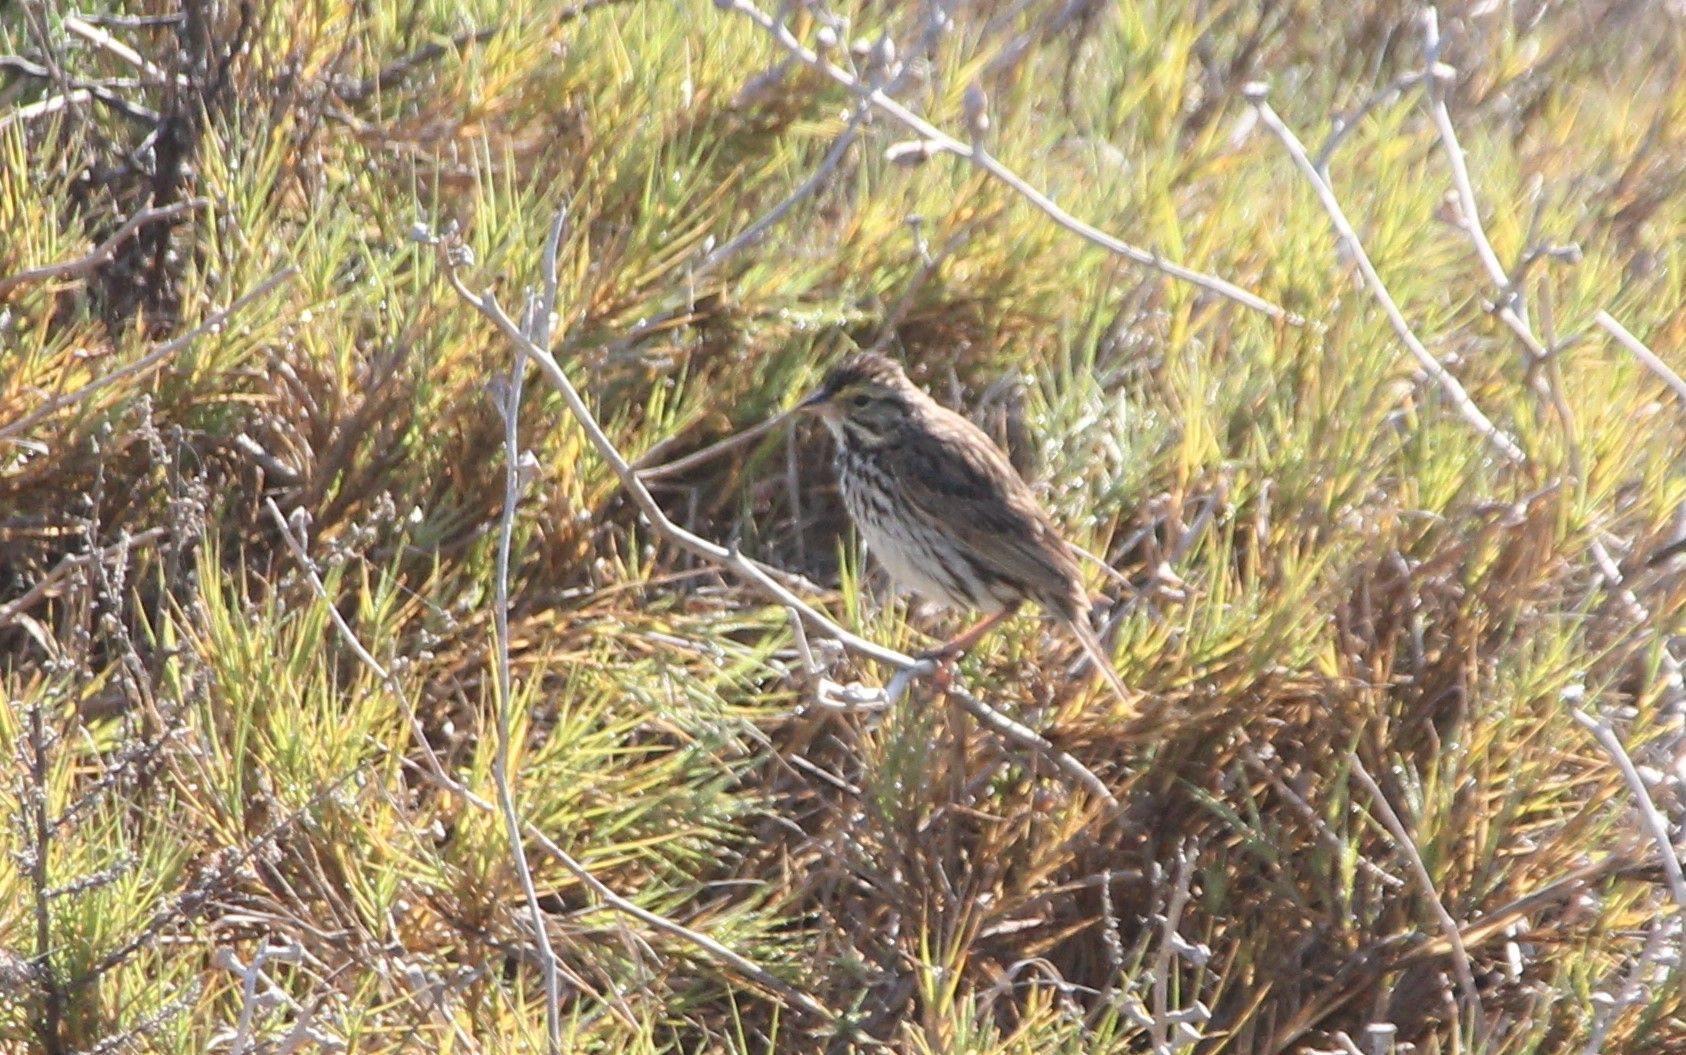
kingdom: Animalia
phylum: Chordata
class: Aves
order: Passeriformes
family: Passerellidae
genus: Passerculus
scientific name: Passerculus sandwichensis
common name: Savannah sparrow
